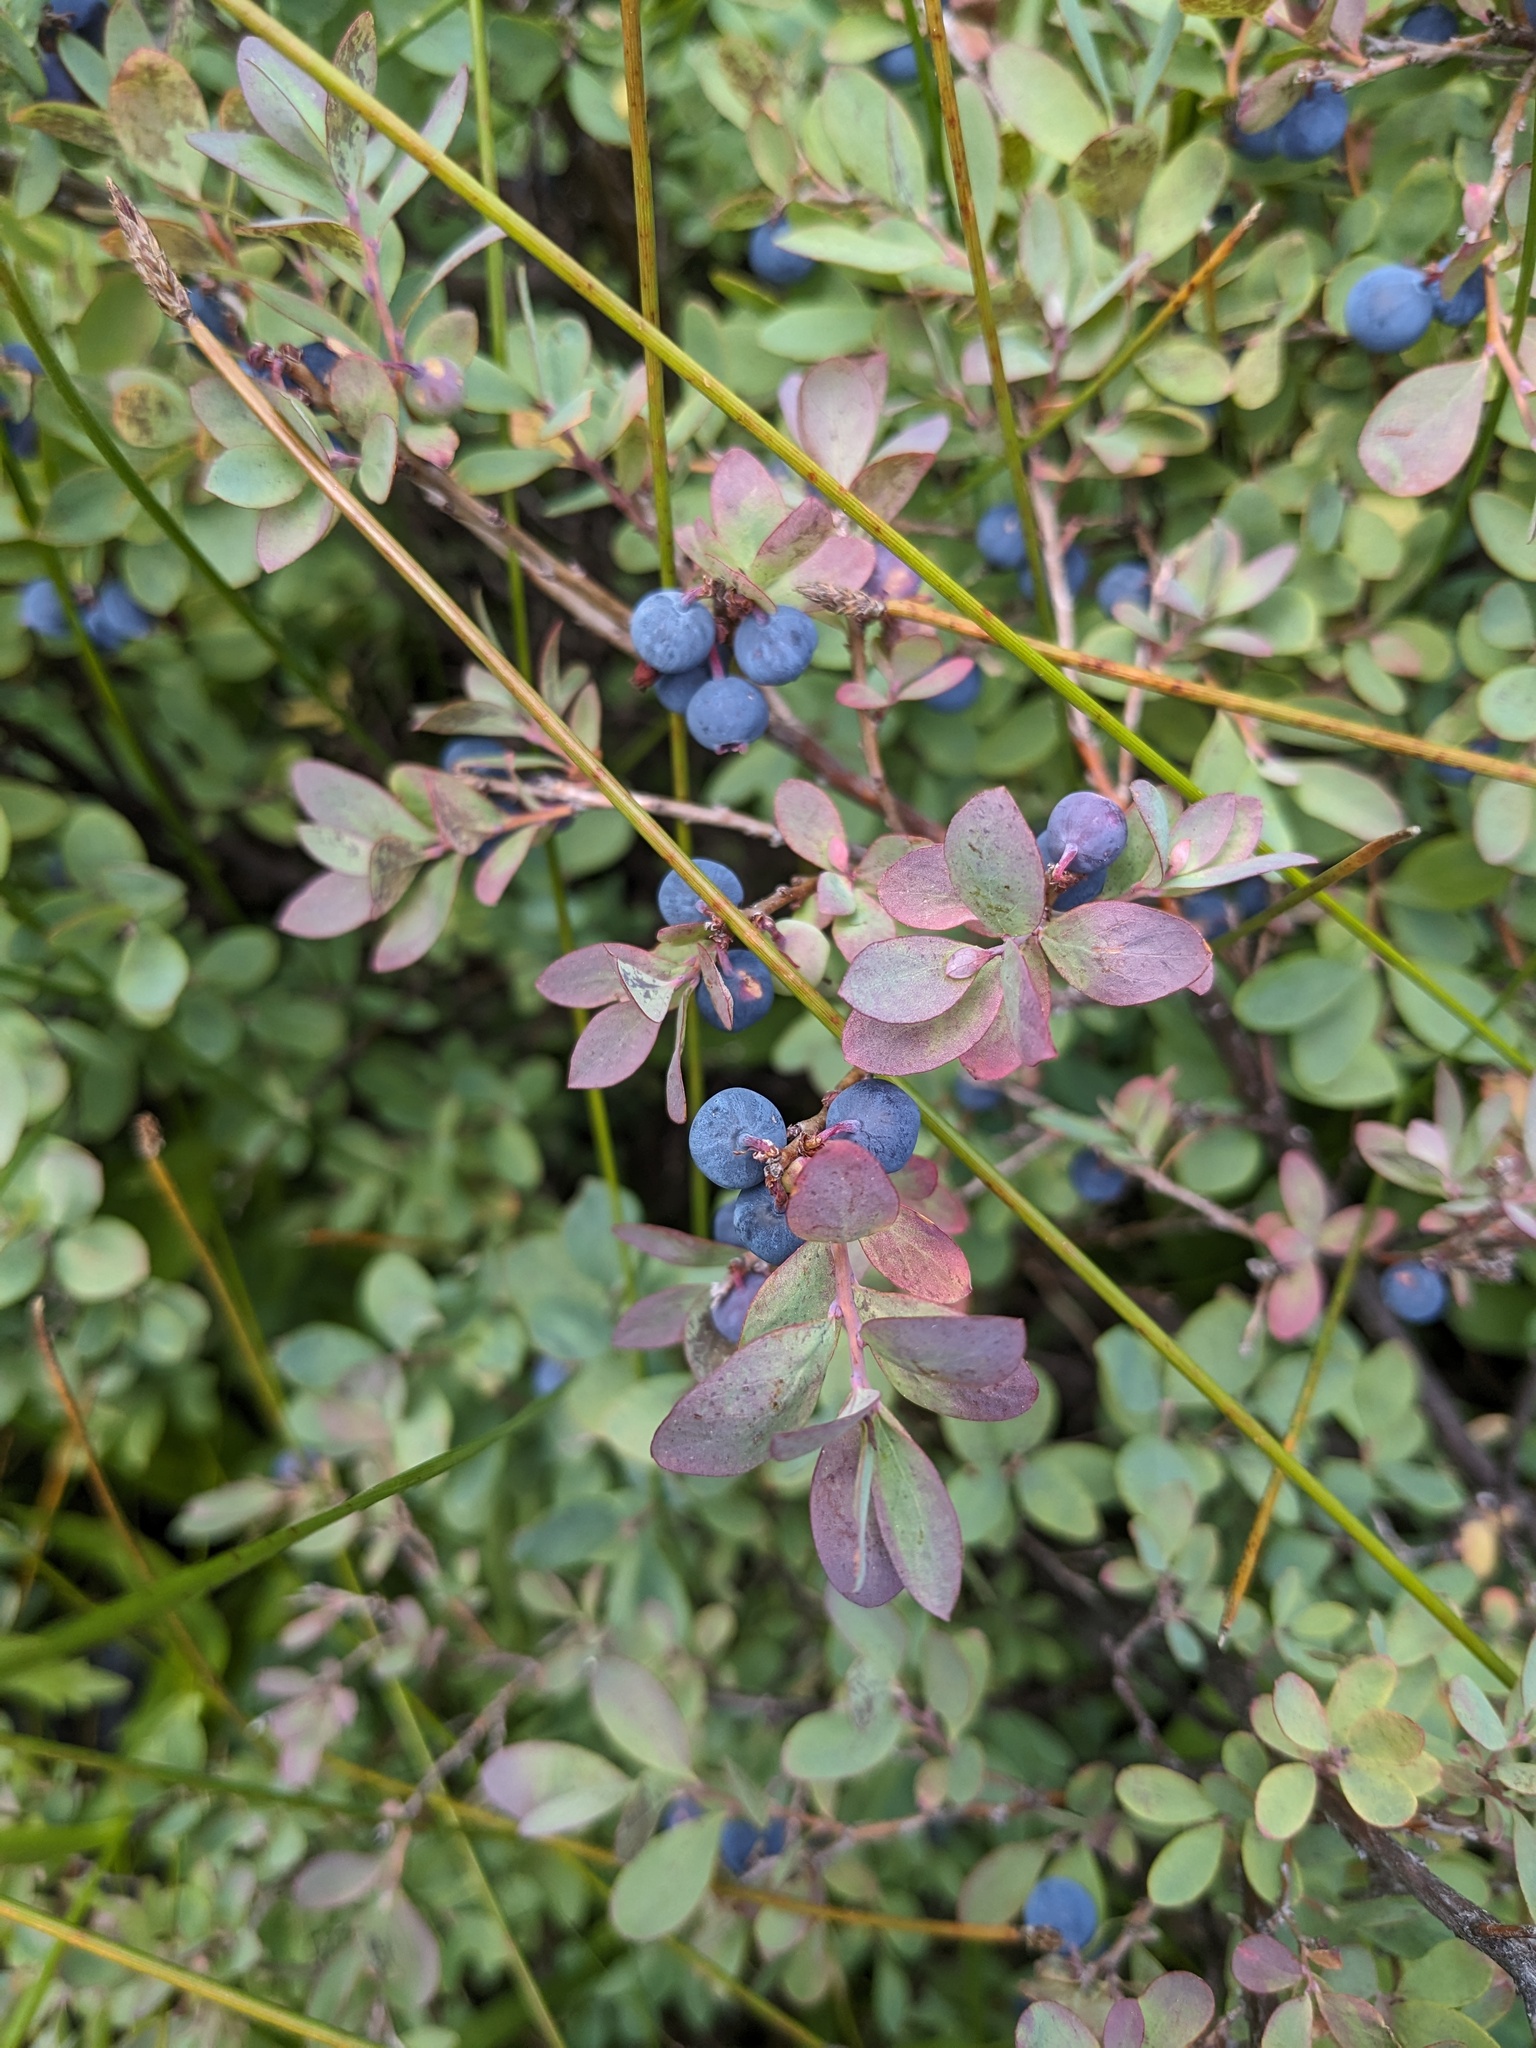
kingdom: Plantae
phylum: Tracheophyta
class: Magnoliopsida
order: Ericales
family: Ericaceae
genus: Vaccinium
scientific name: Vaccinium uliginosum
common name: Bog bilberry
